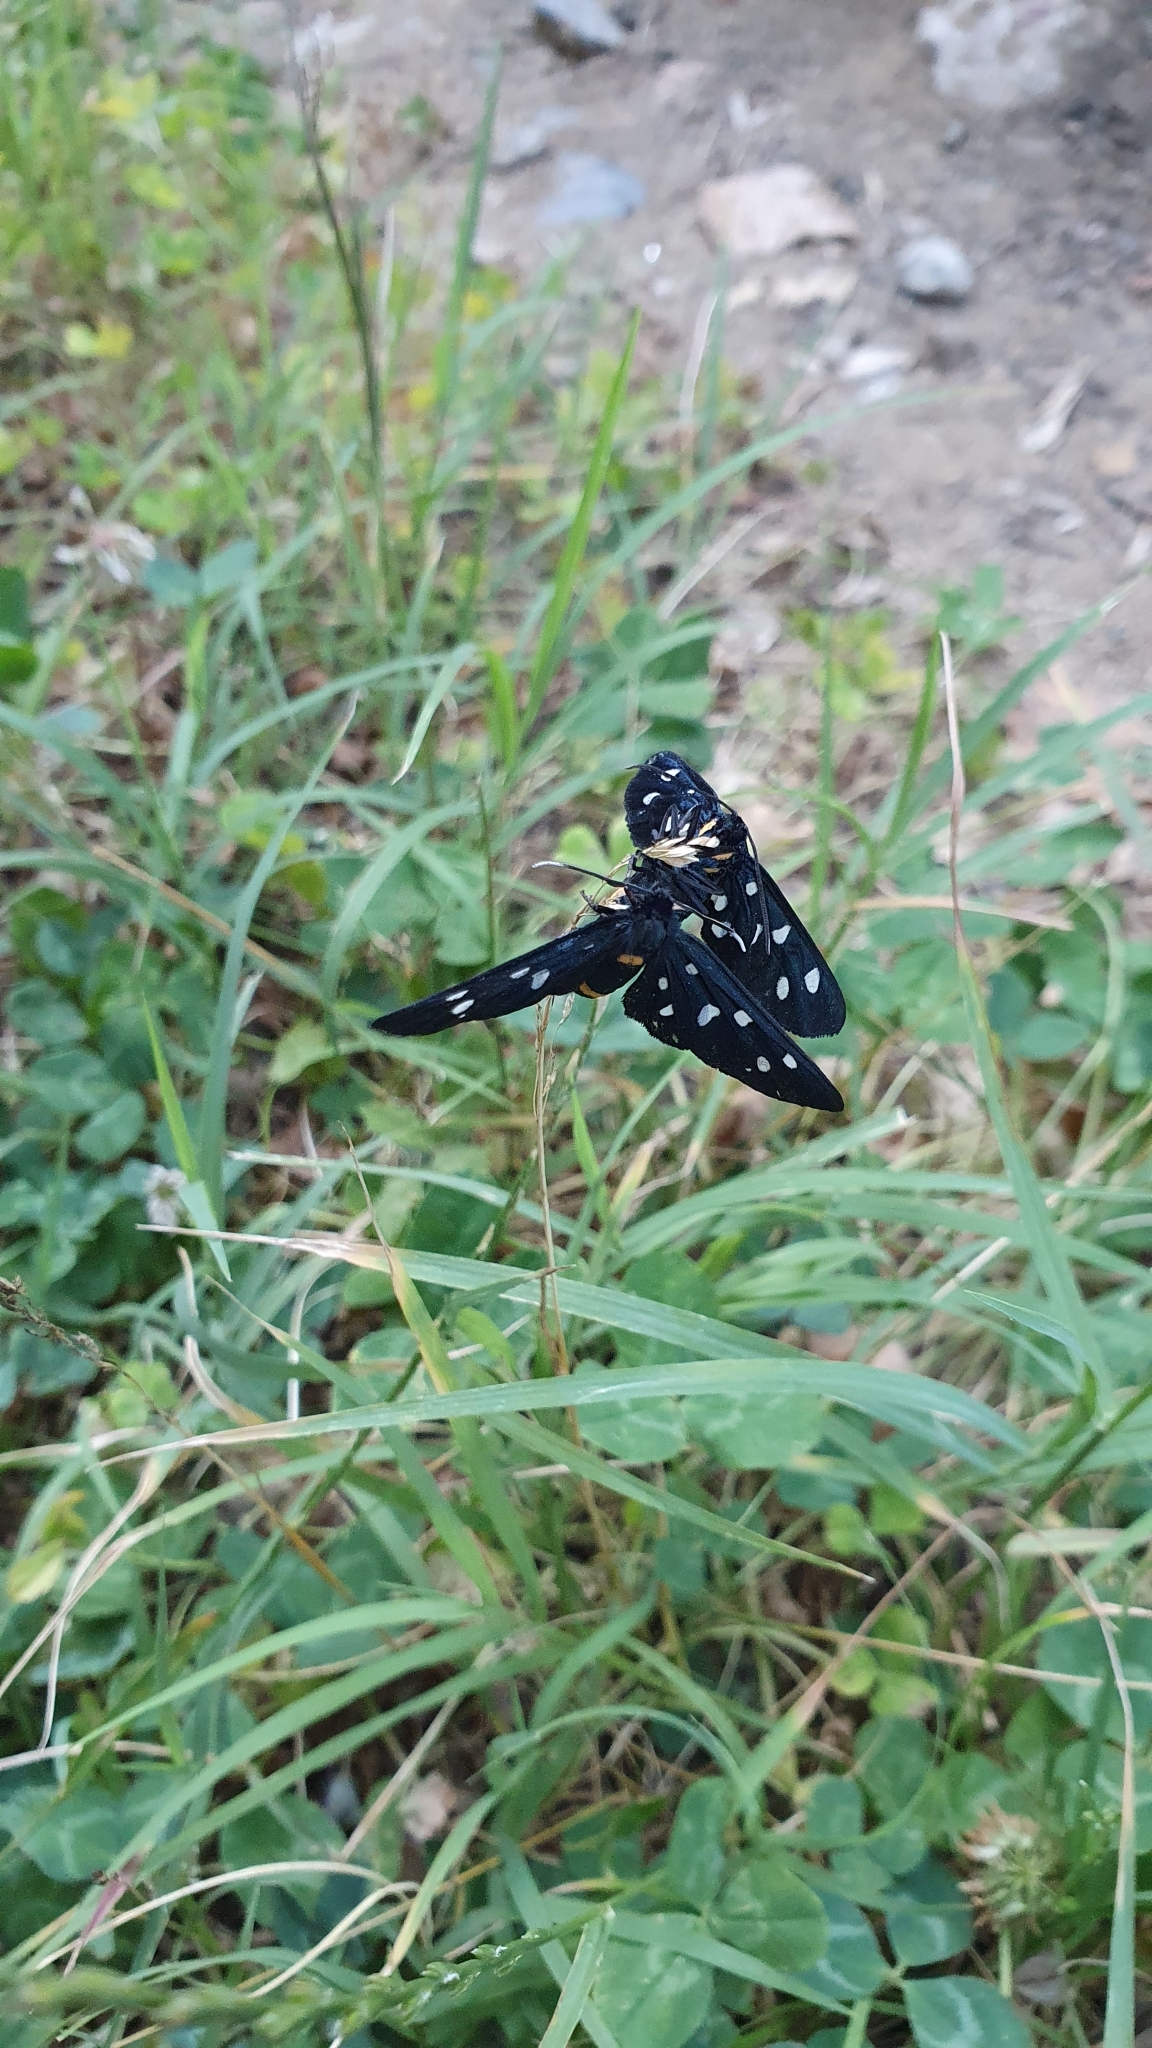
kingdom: Animalia
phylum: Arthropoda
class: Insecta
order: Lepidoptera
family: Erebidae
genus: Amata
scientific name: Amata phegea
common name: Nine-spotted
